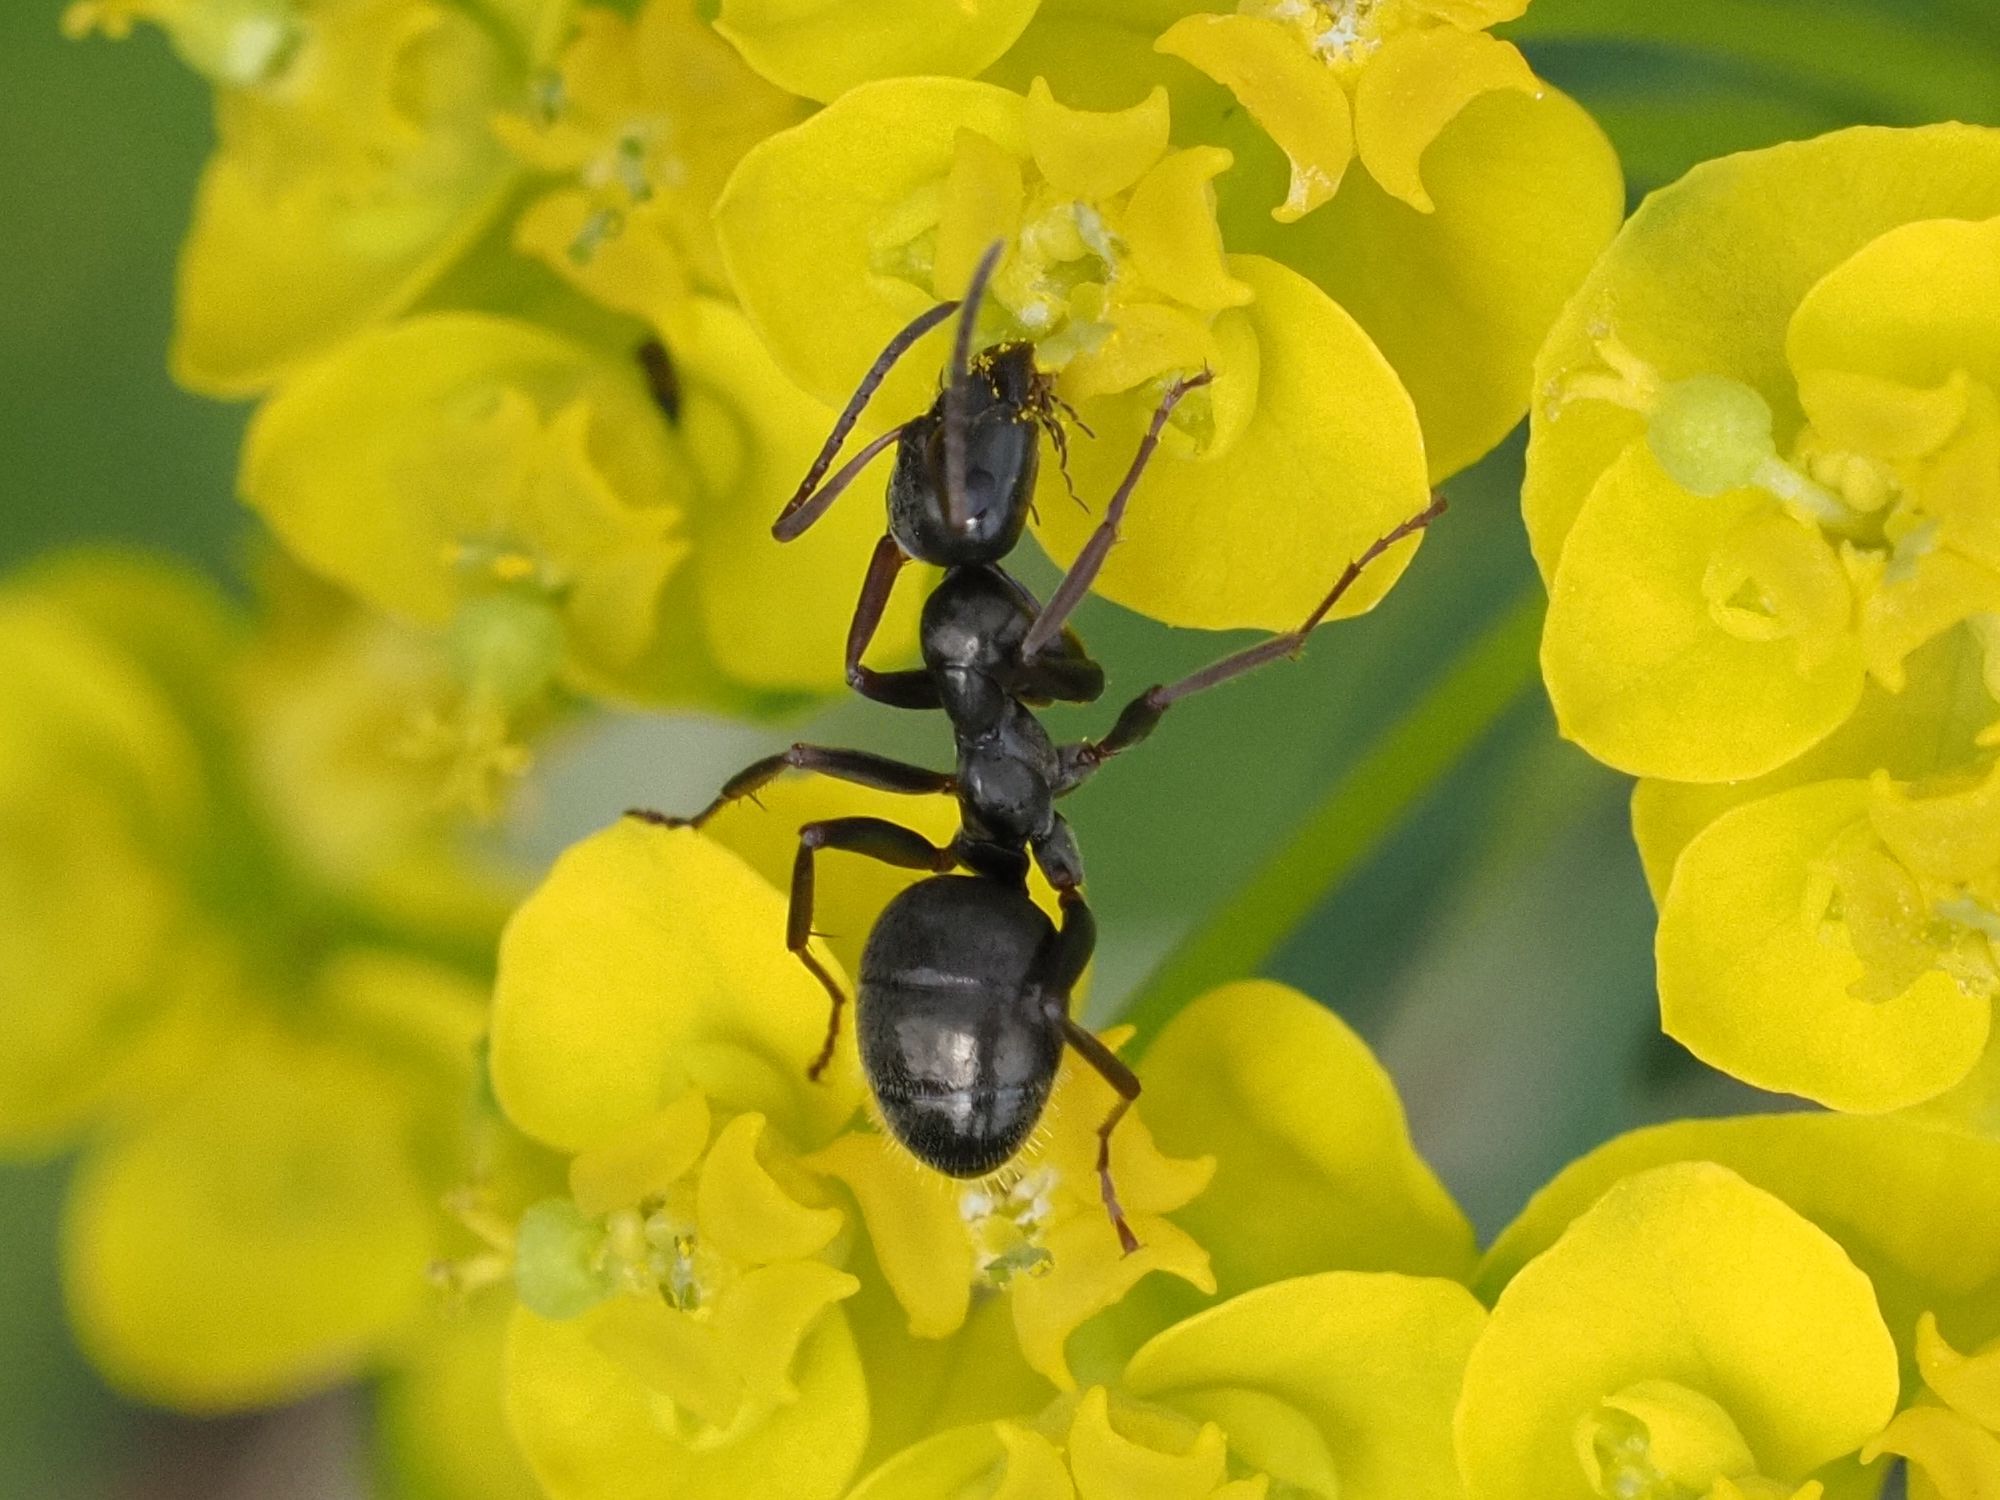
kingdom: Animalia
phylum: Arthropoda
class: Insecta
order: Hymenoptera
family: Formicidae
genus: Formica
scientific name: Formica gagates
